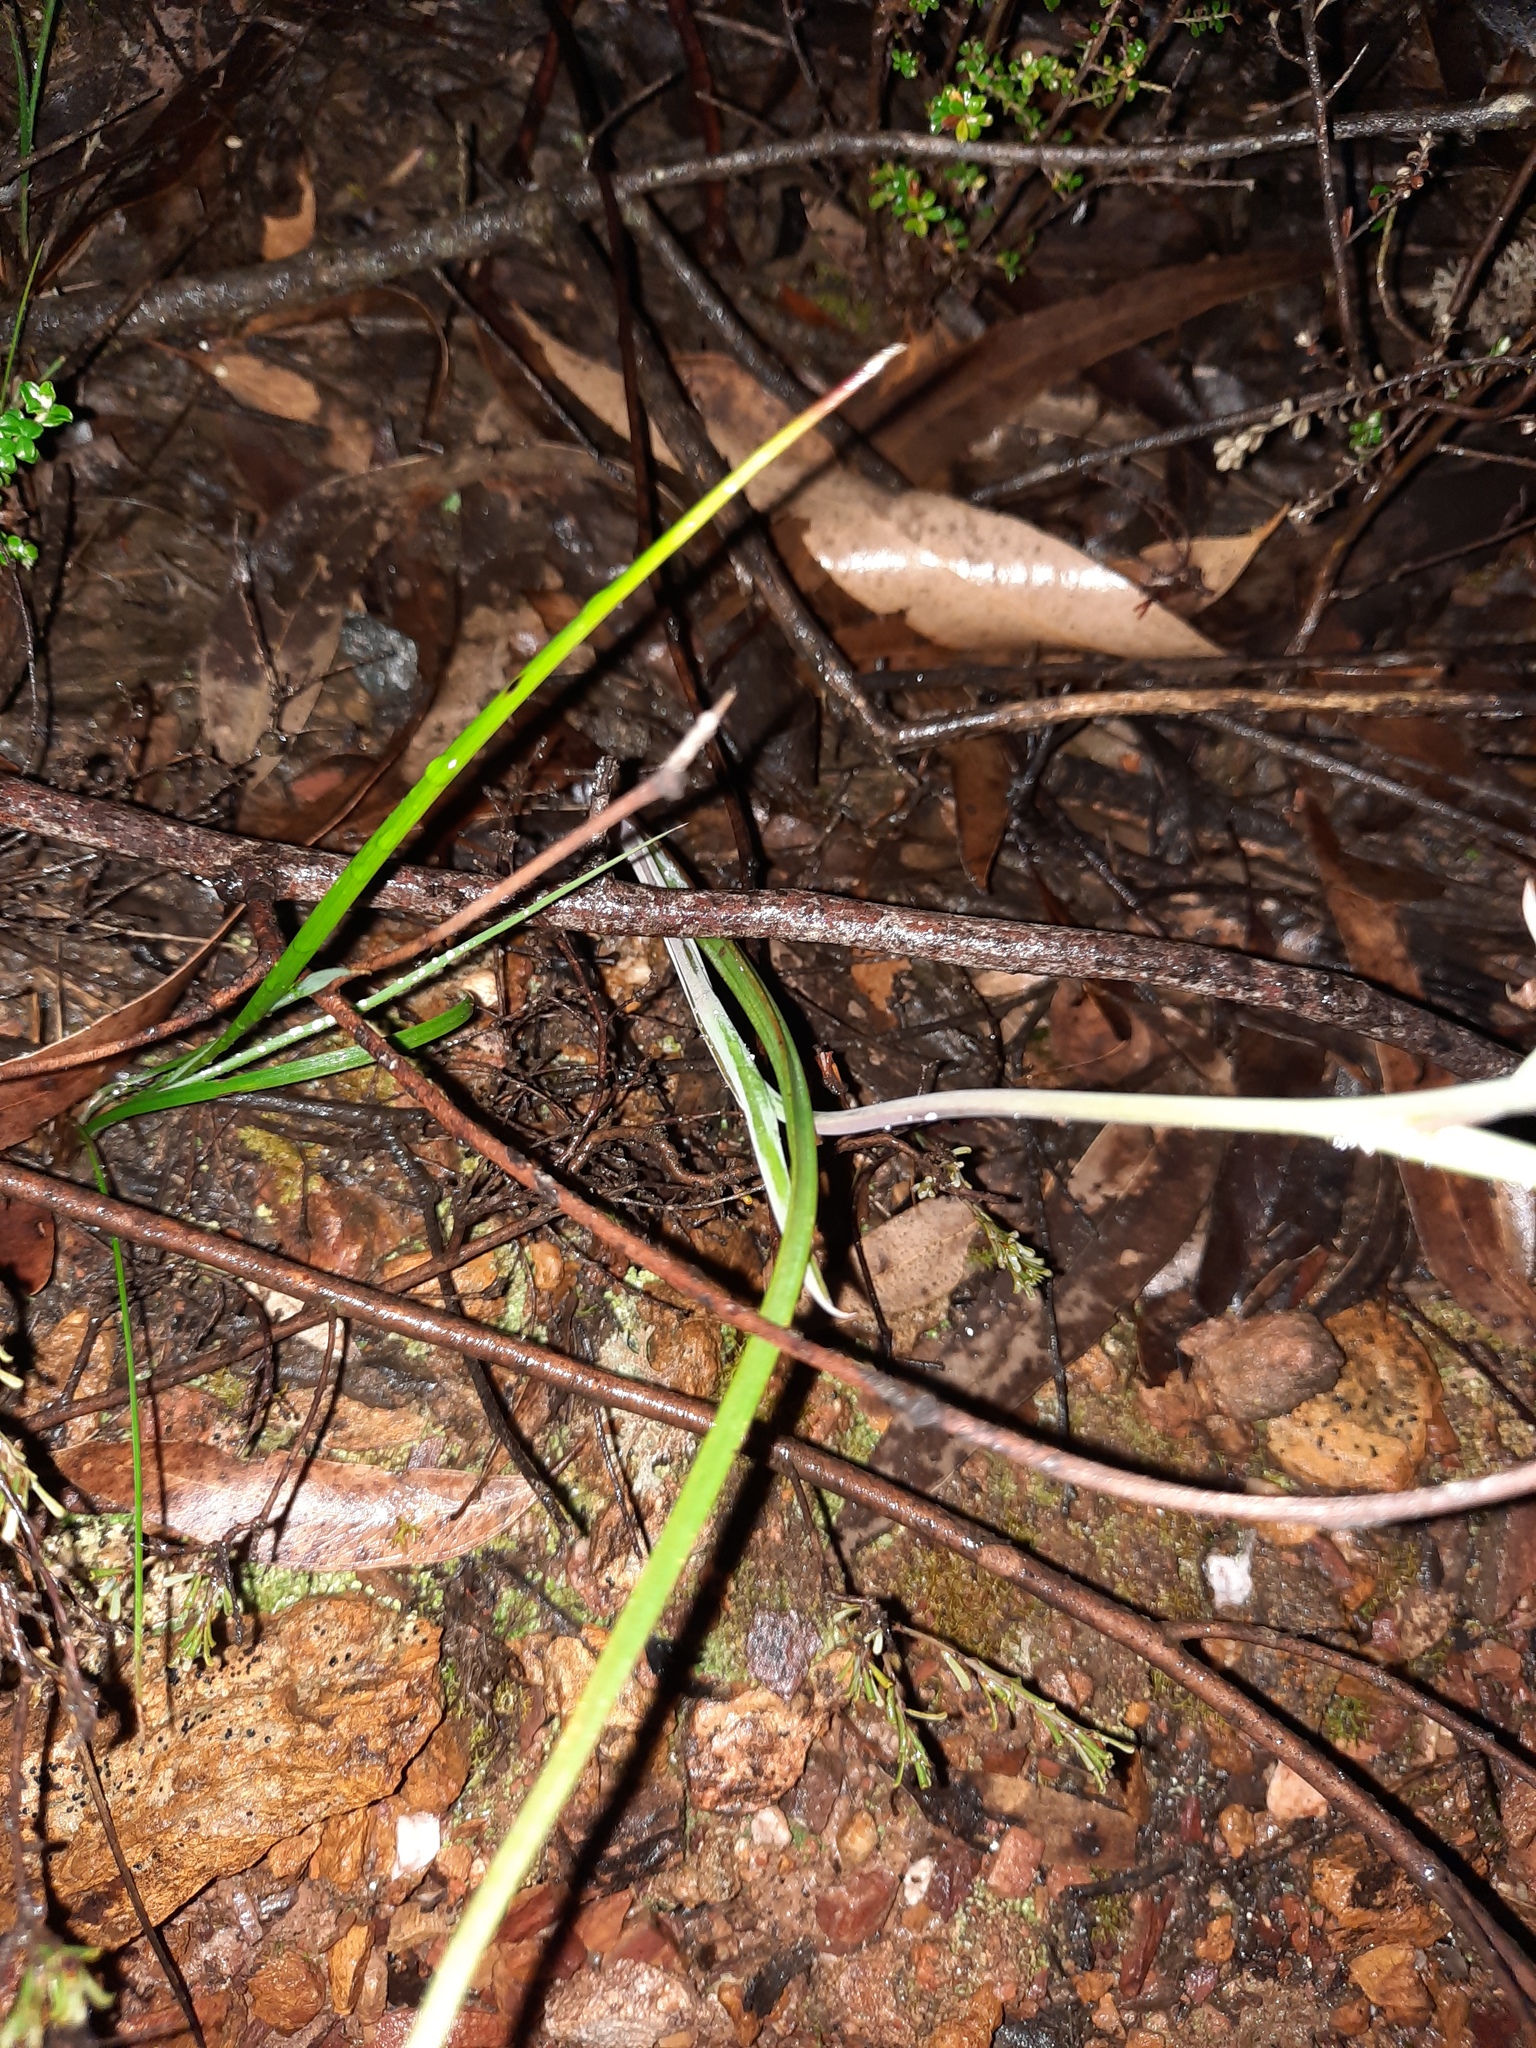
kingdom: Plantae
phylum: Tracheophyta
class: Liliopsida
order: Asparagales
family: Orchidaceae
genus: Calochilus
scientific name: Calochilus robertsonii
